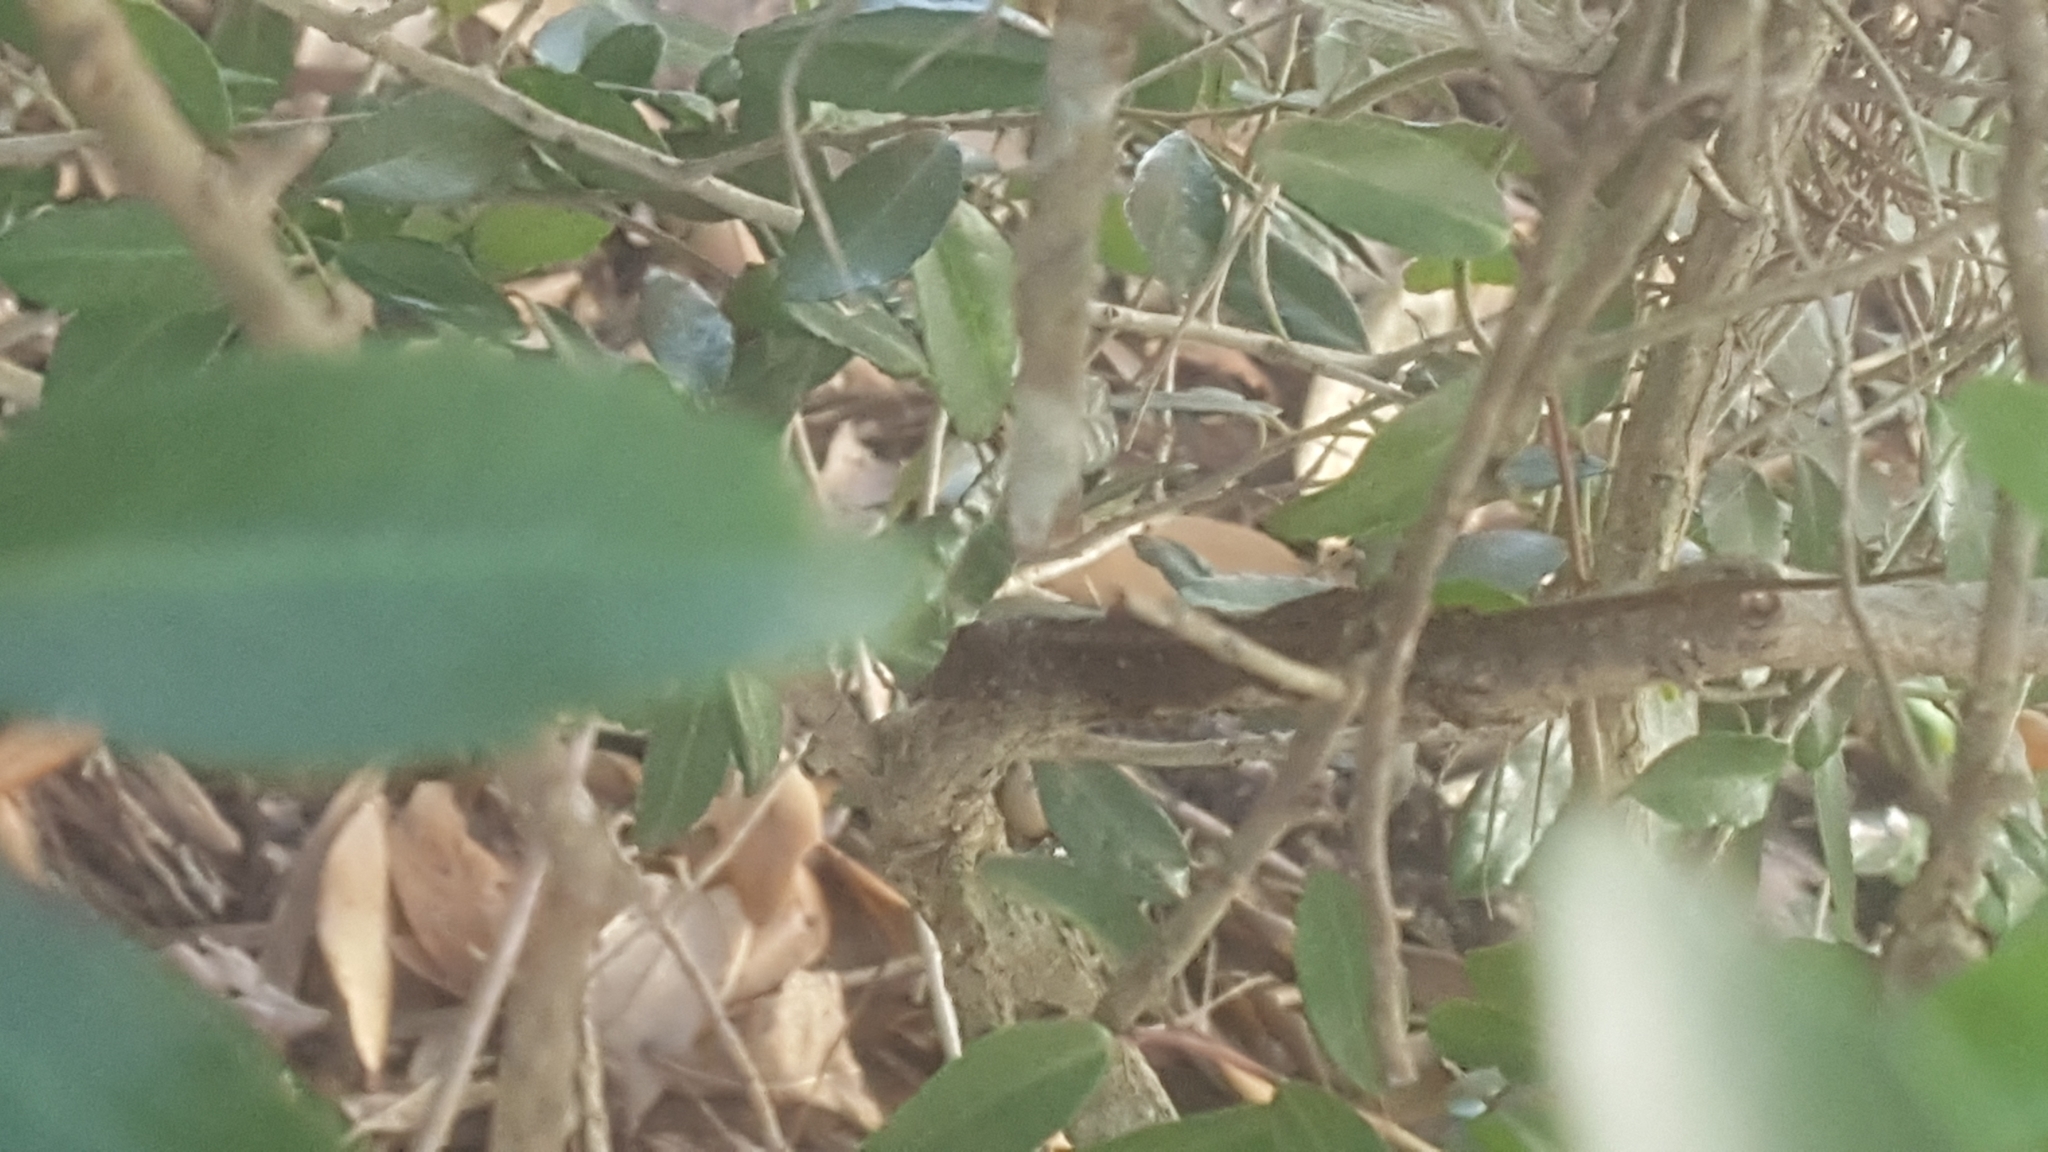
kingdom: Animalia
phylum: Chordata
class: Squamata
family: Dactyloidae
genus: Anolis
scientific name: Anolis sagrei
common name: Brown anole
